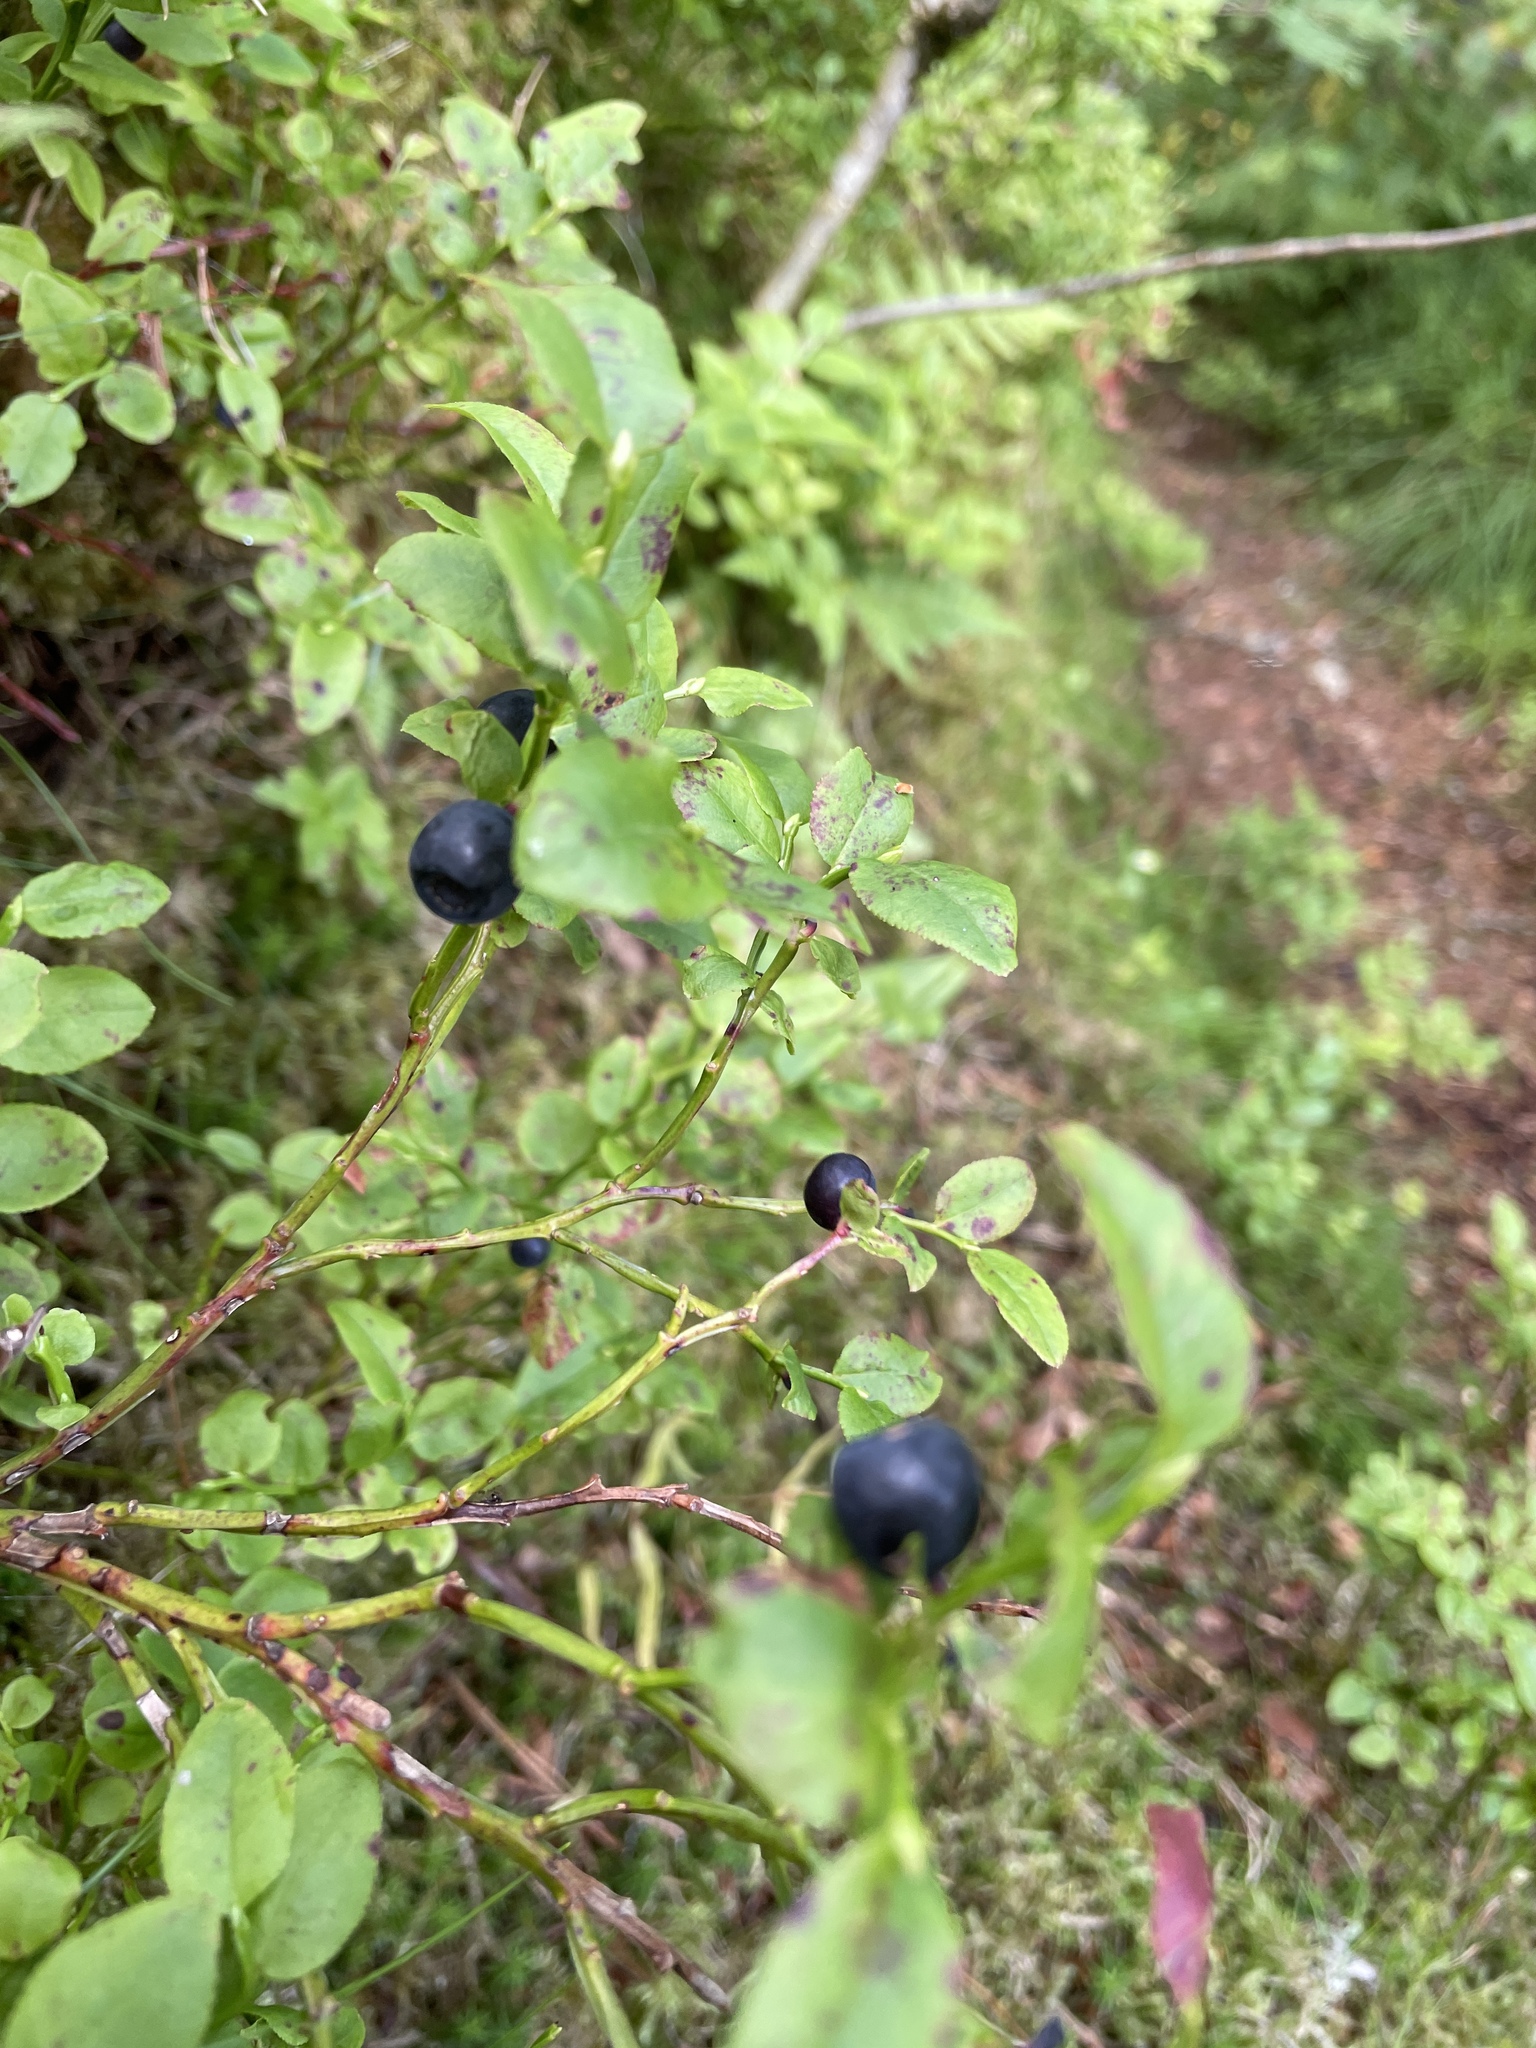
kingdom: Plantae
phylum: Tracheophyta
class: Magnoliopsida
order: Ericales
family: Ericaceae
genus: Vaccinium
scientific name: Vaccinium myrtillus
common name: Bilberry
